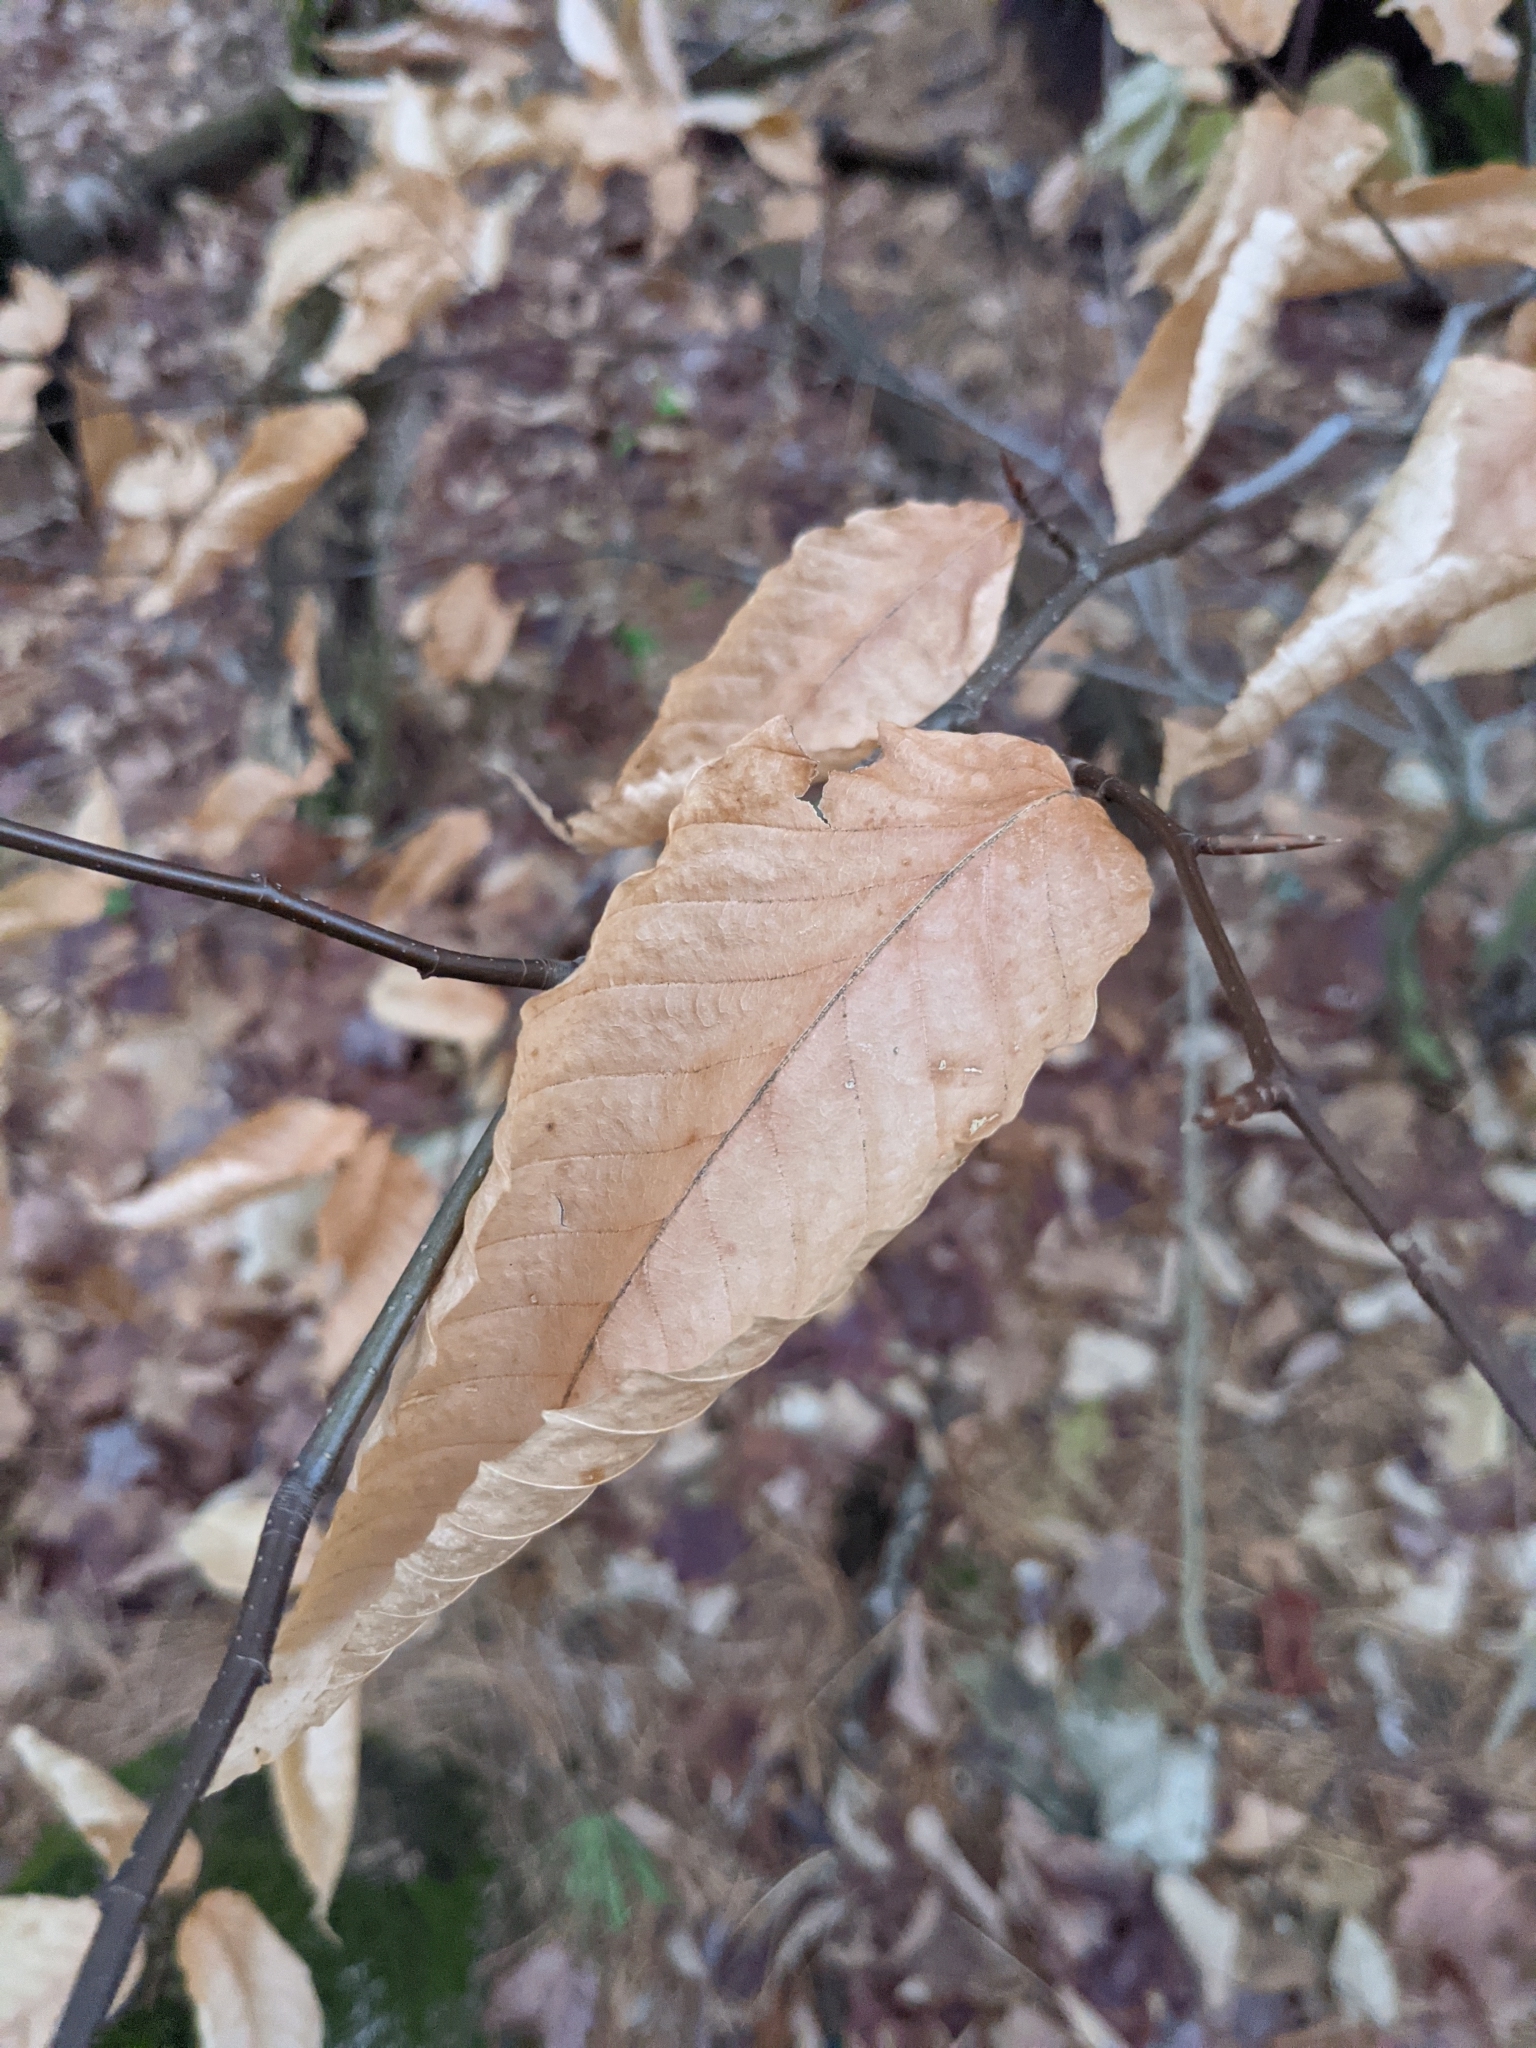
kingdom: Plantae
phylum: Tracheophyta
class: Magnoliopsida
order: Fagales
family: Fagaceae
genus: Fagus
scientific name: Fagus grandifolia
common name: American beech
